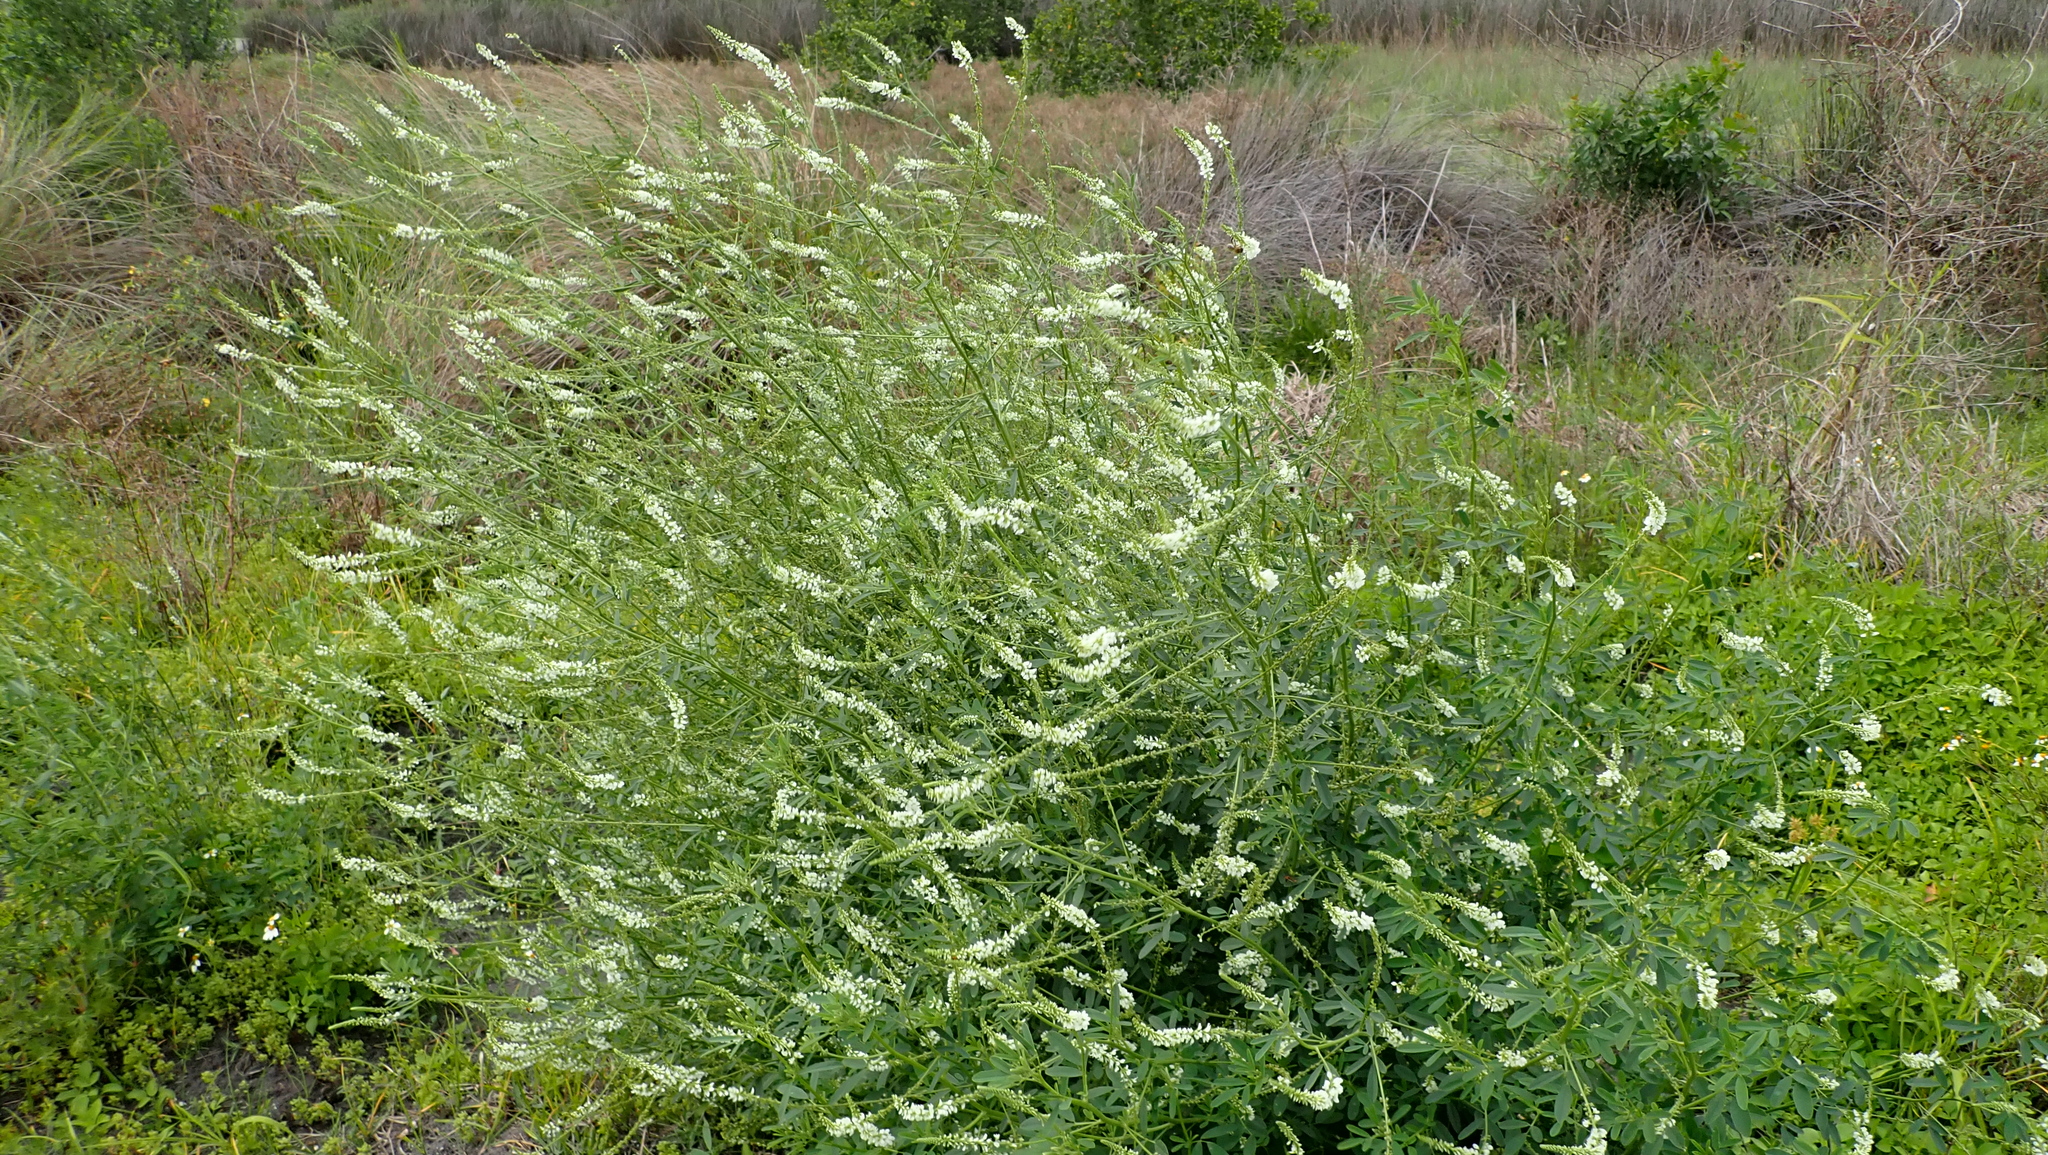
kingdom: Plantae
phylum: Tracheophyta
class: Magnoliopsida
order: Fabales
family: Fabaceae
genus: Melilotus
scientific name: Melilotus albus
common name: White melilot
